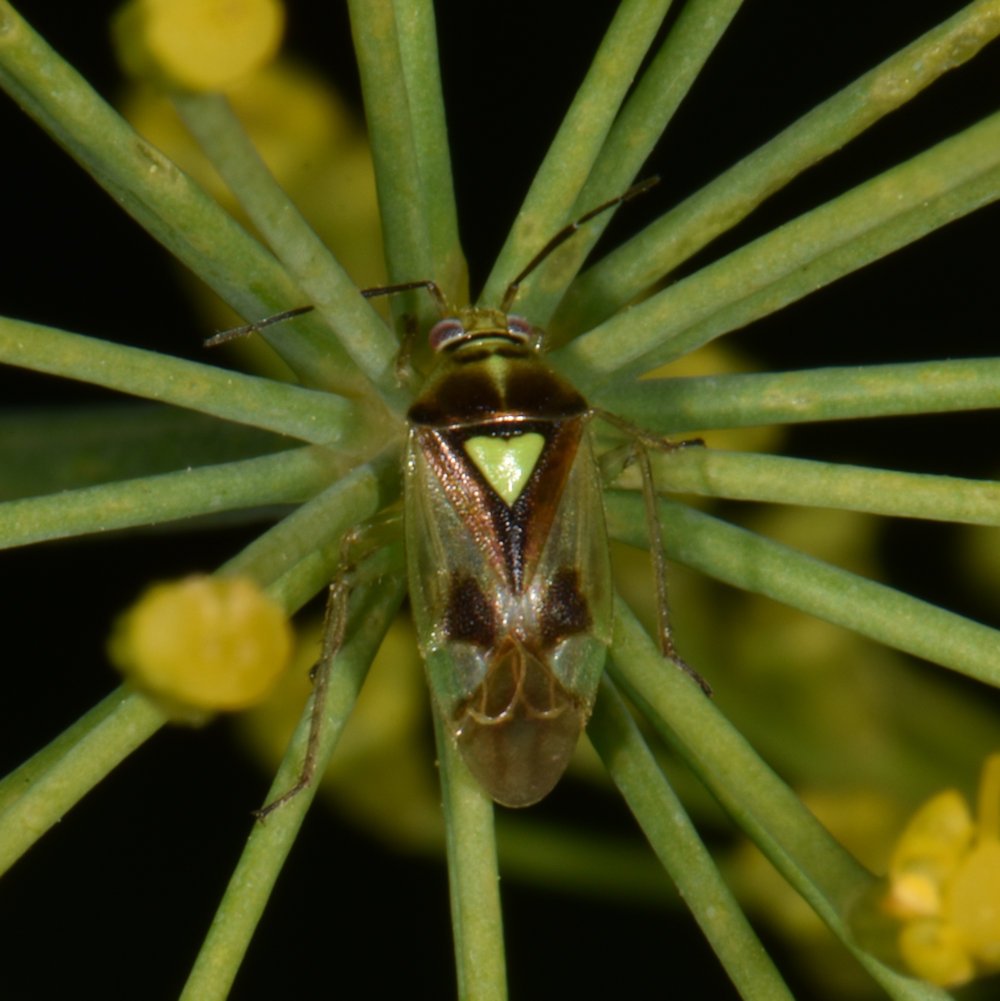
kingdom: Animalia
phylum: Arthropoda
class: Insecta
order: Hemiptera
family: Miridae
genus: Orthops
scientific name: Orthops scutellatus
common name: Plant bug
